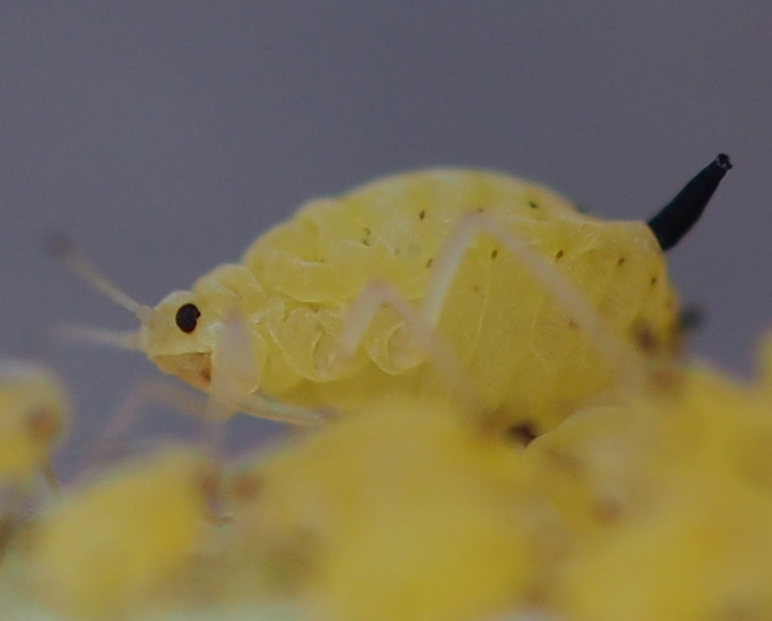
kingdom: Animalia
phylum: Arthropoda
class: Insecta
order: Hemiptera
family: Aphididae
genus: Aphis
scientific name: Aphis verbasci
